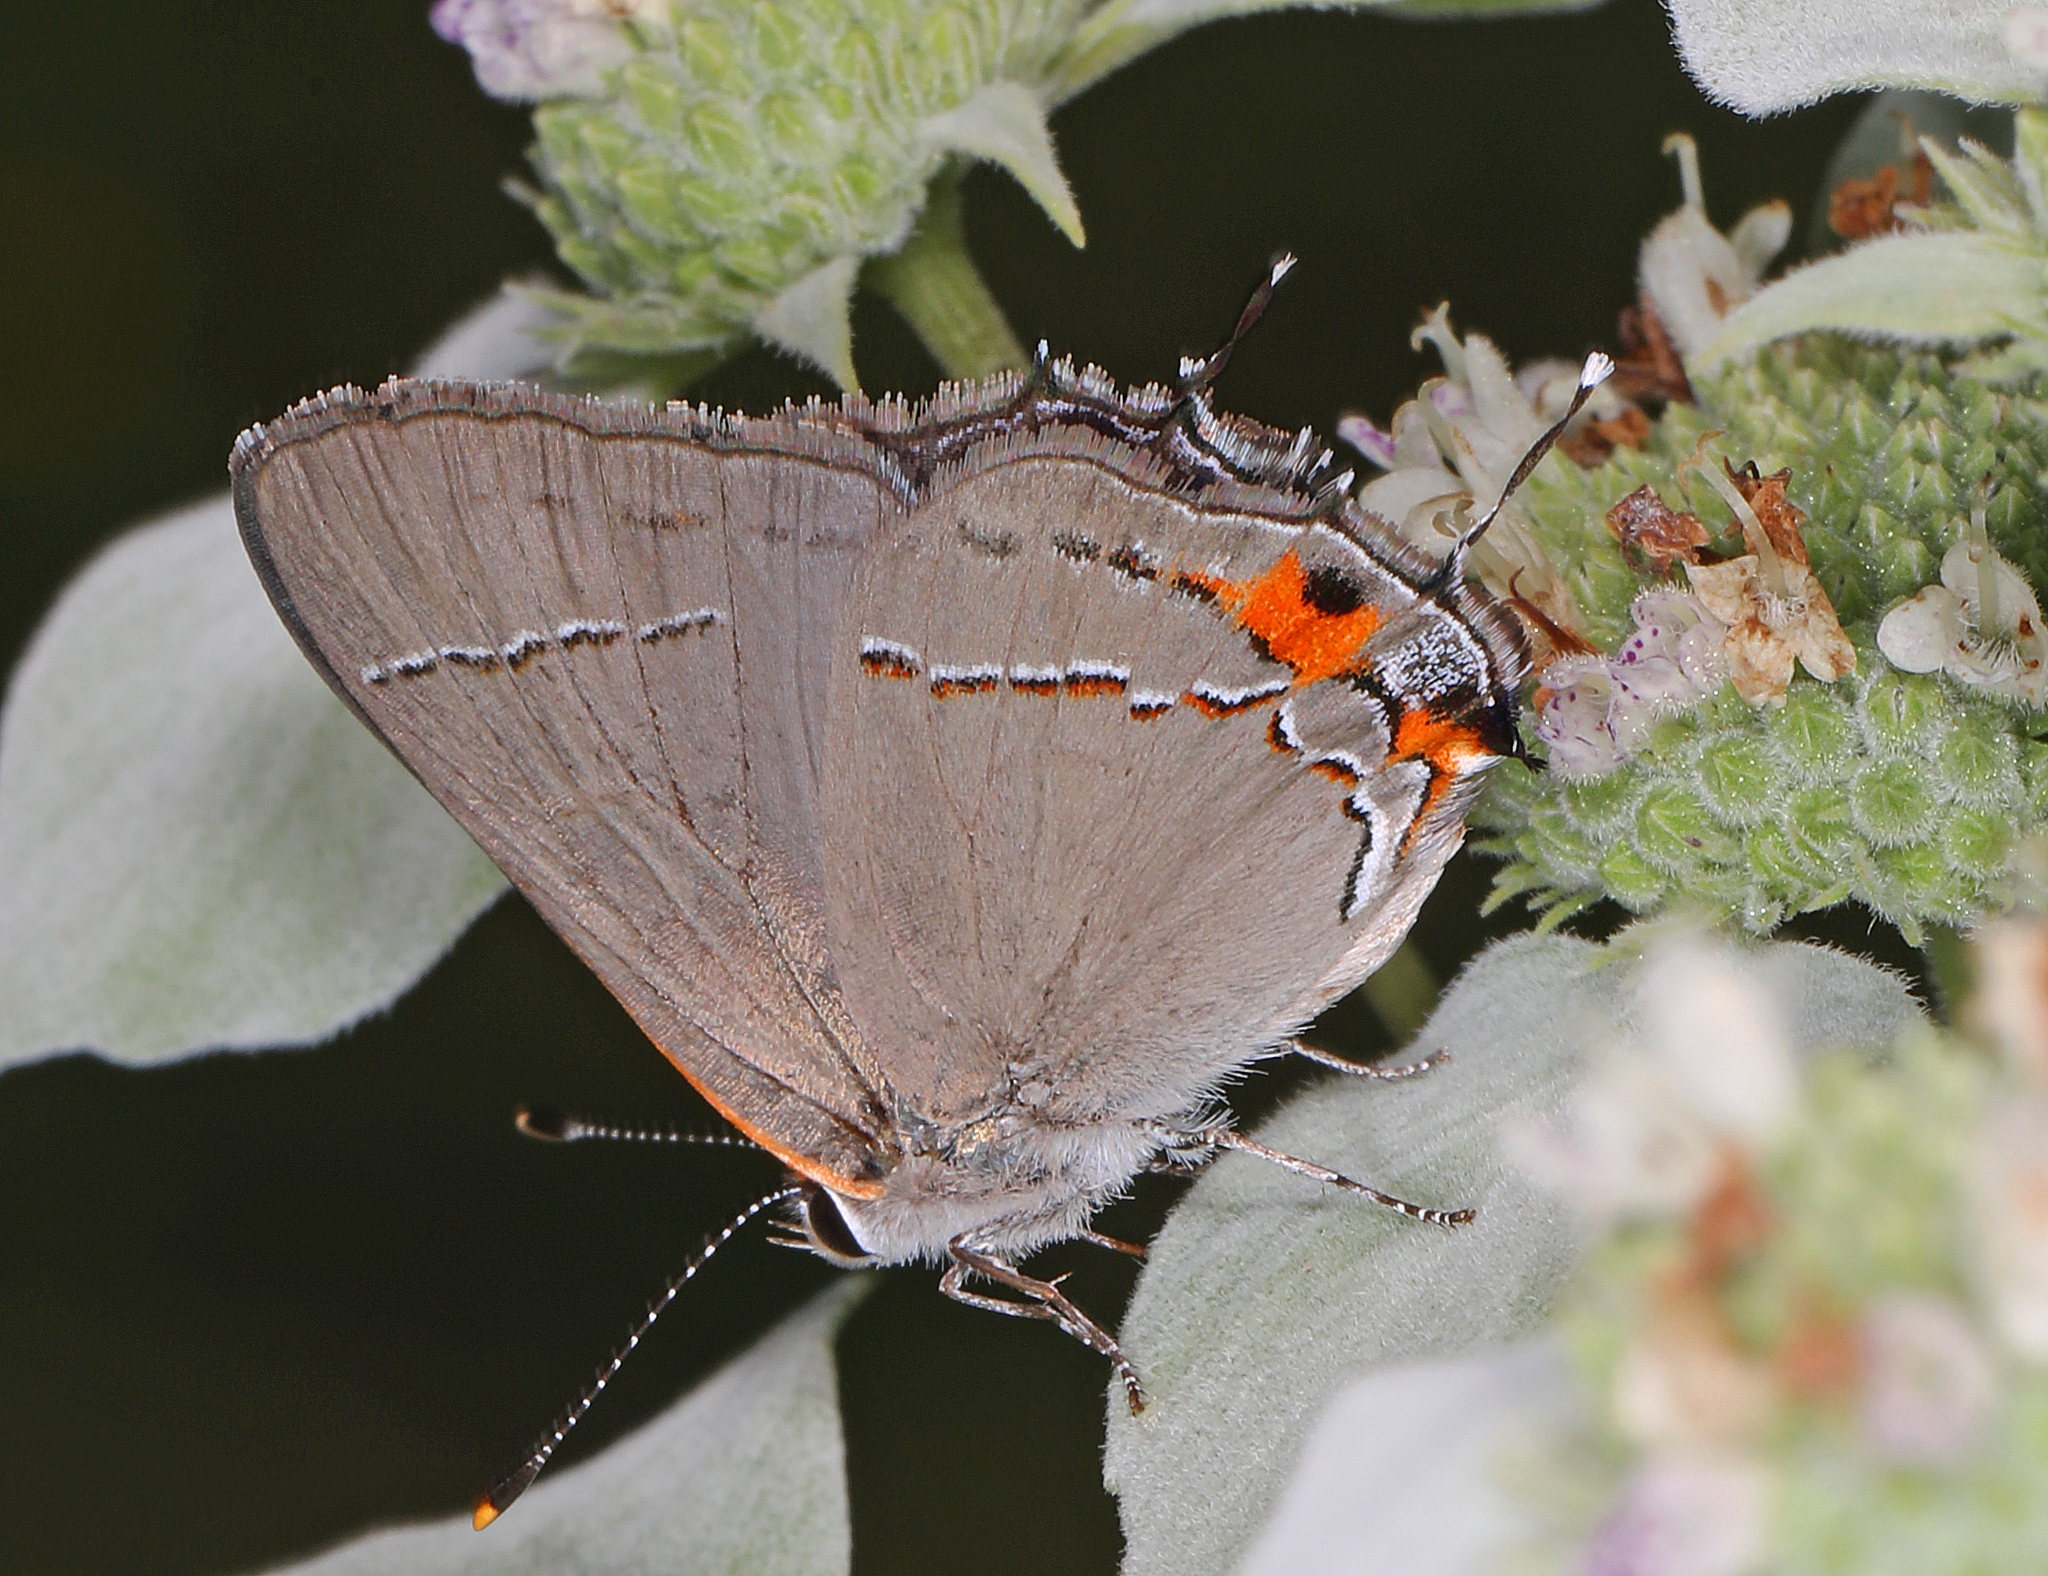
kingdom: Animalia
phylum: Arthropoda
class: Insecta
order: Lepidoptera
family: Lycaenidae
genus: Strymon
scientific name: Strymon melinus
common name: Gray hairstreak
